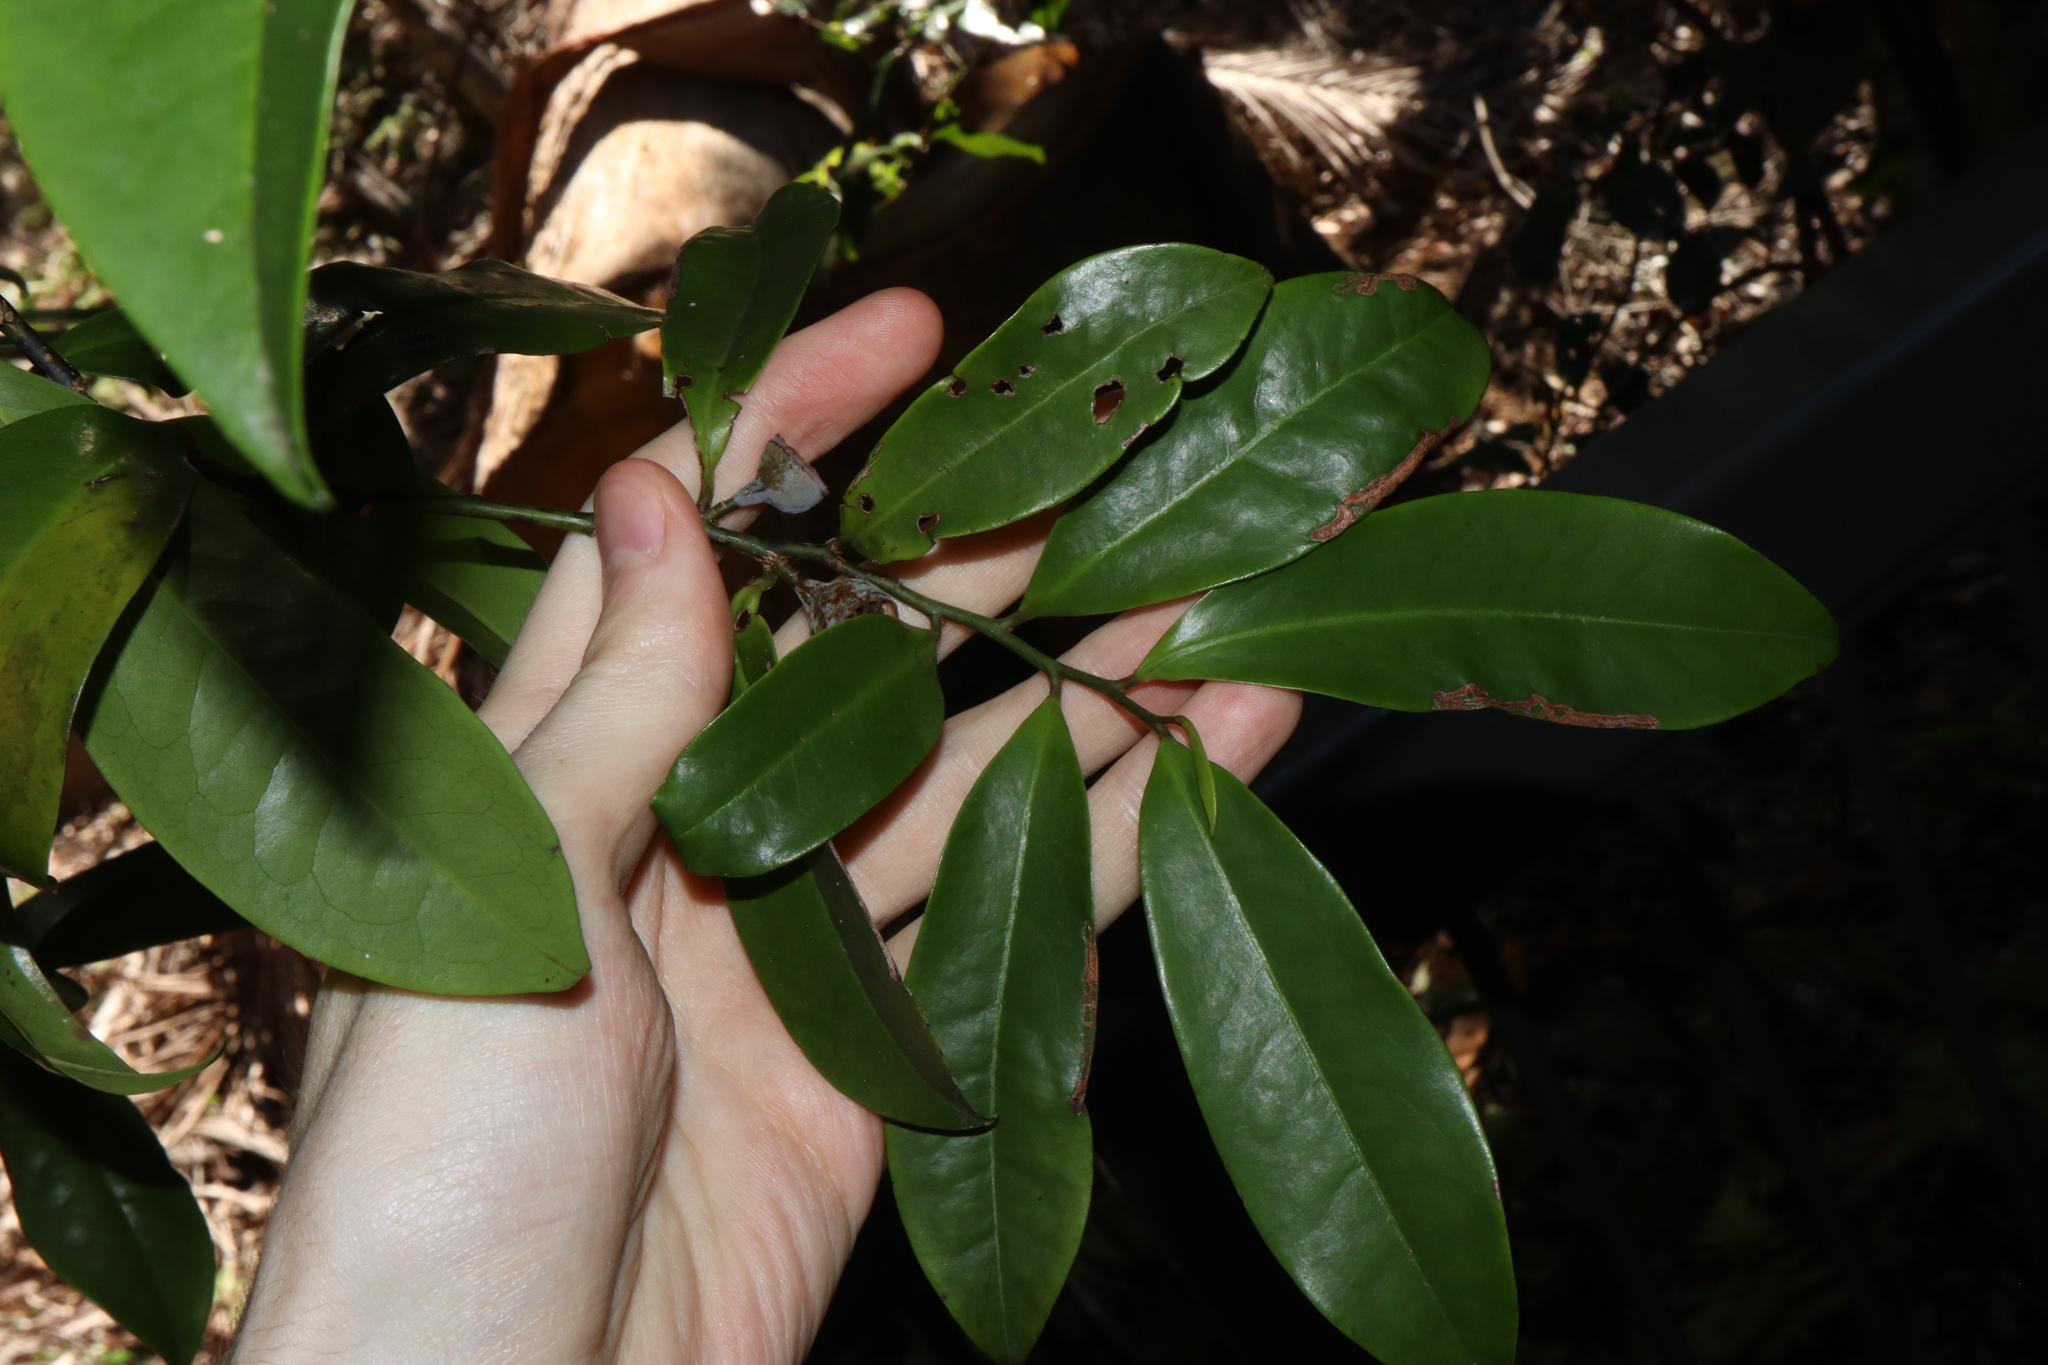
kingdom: Plantae
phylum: Tracheophyta
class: Magnoliopsida
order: Magnoliales
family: Eupomatiaceae
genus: Eupomatia
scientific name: Eupomatia laurina
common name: Bolwarra
